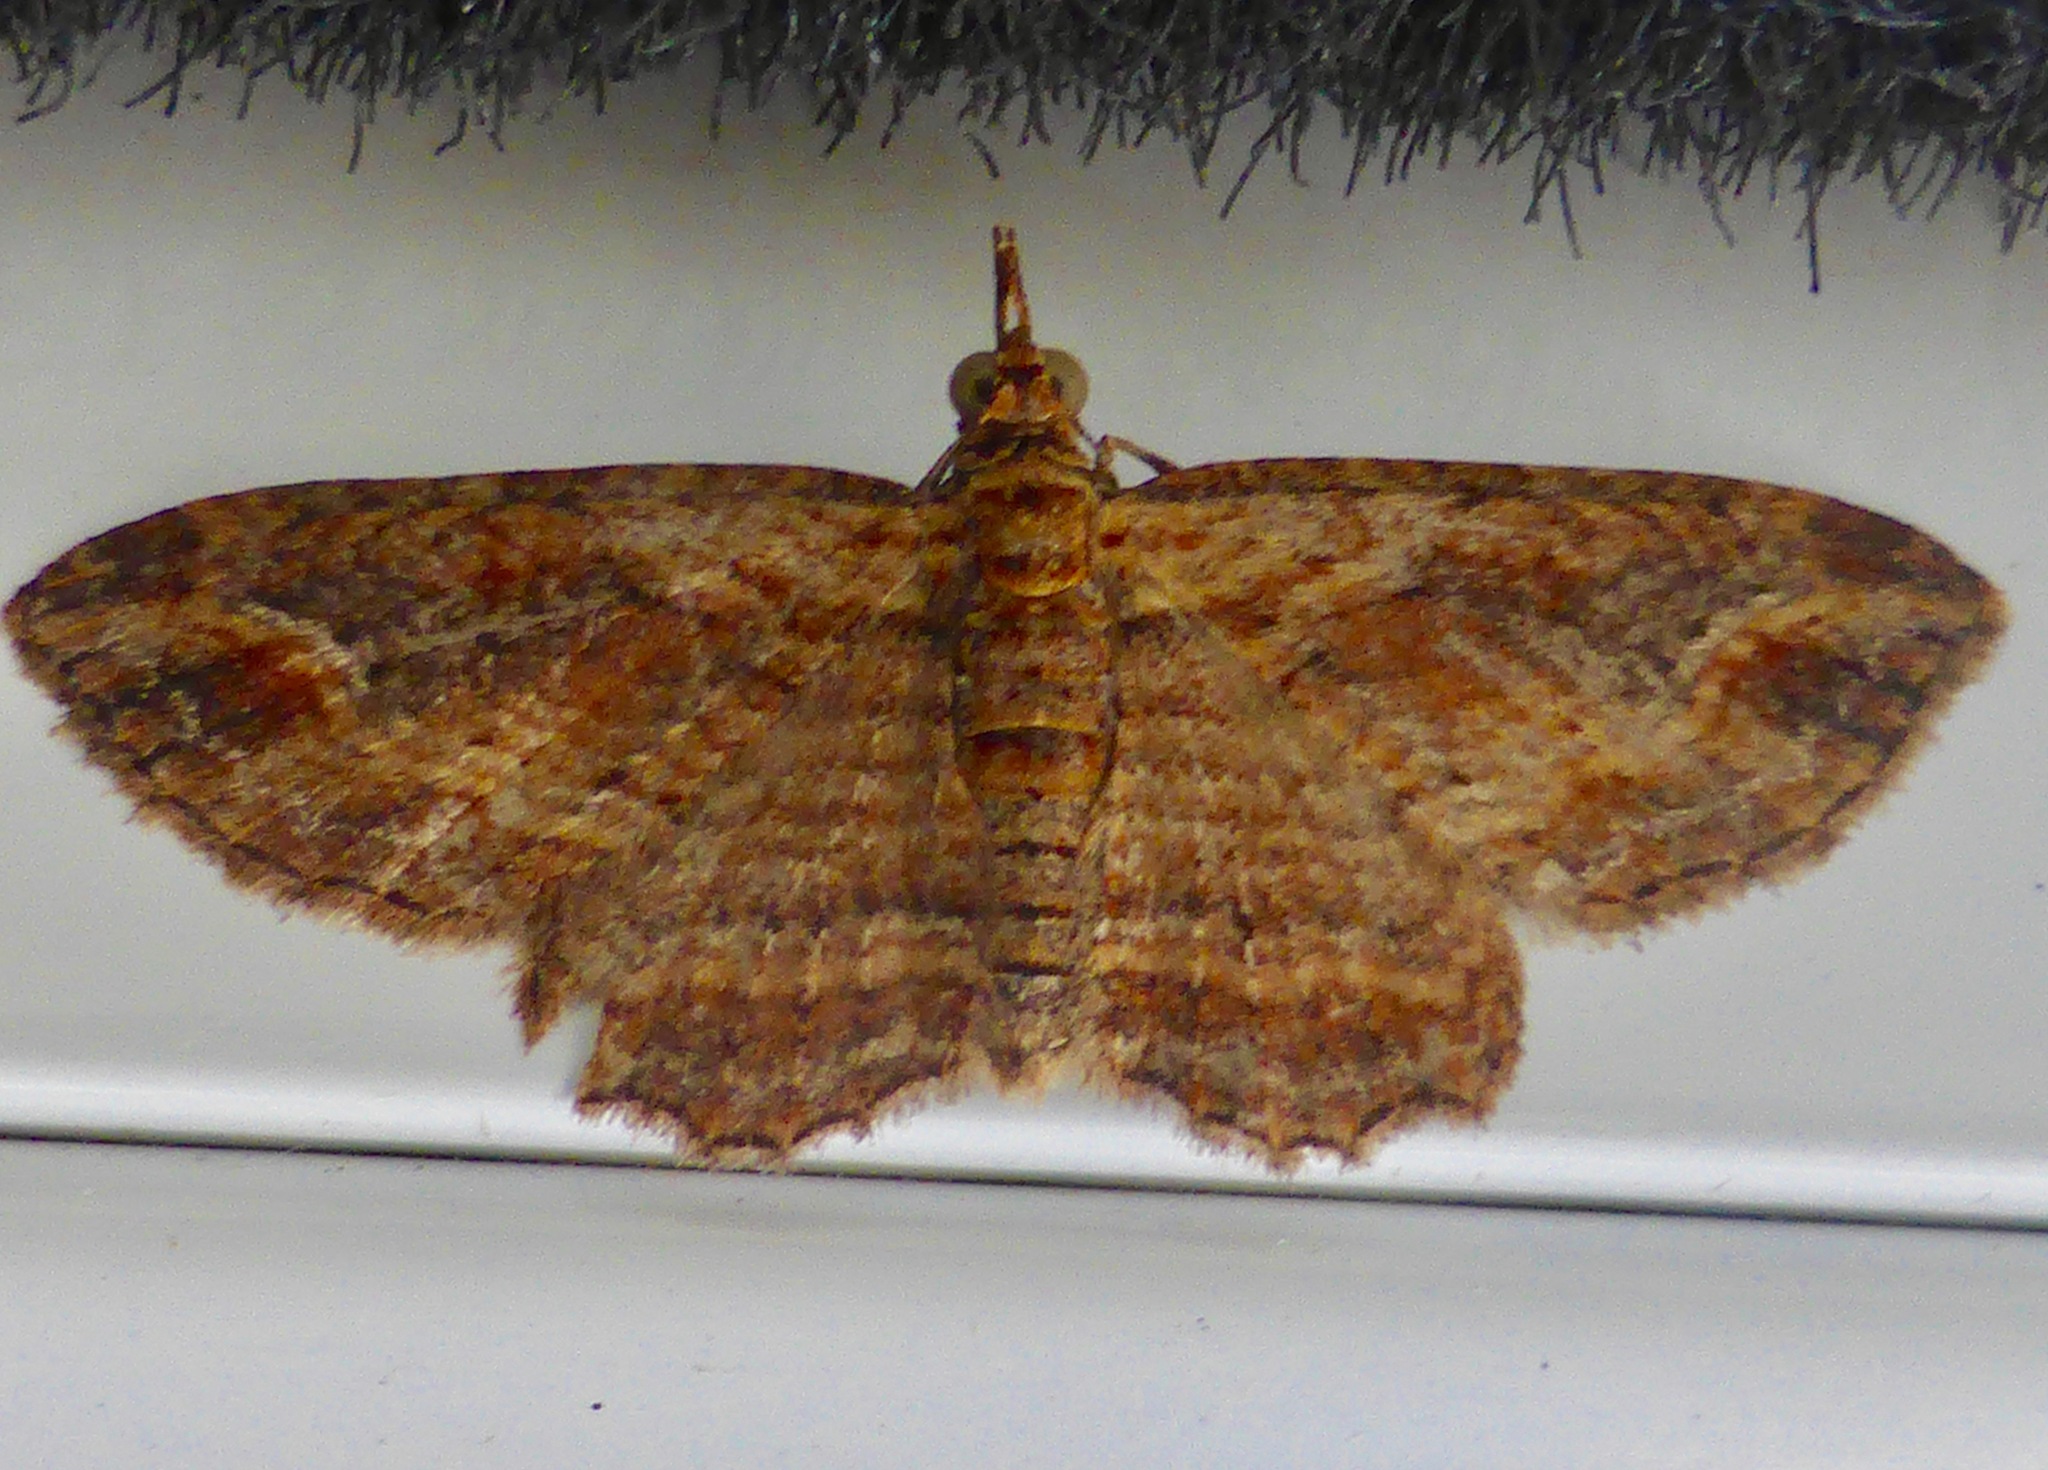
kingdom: Animalia
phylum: Arthropoda
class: Insecta
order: Lepidoptera
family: Geometridae
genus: Chloroclystis
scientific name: Chloroclystis filata
